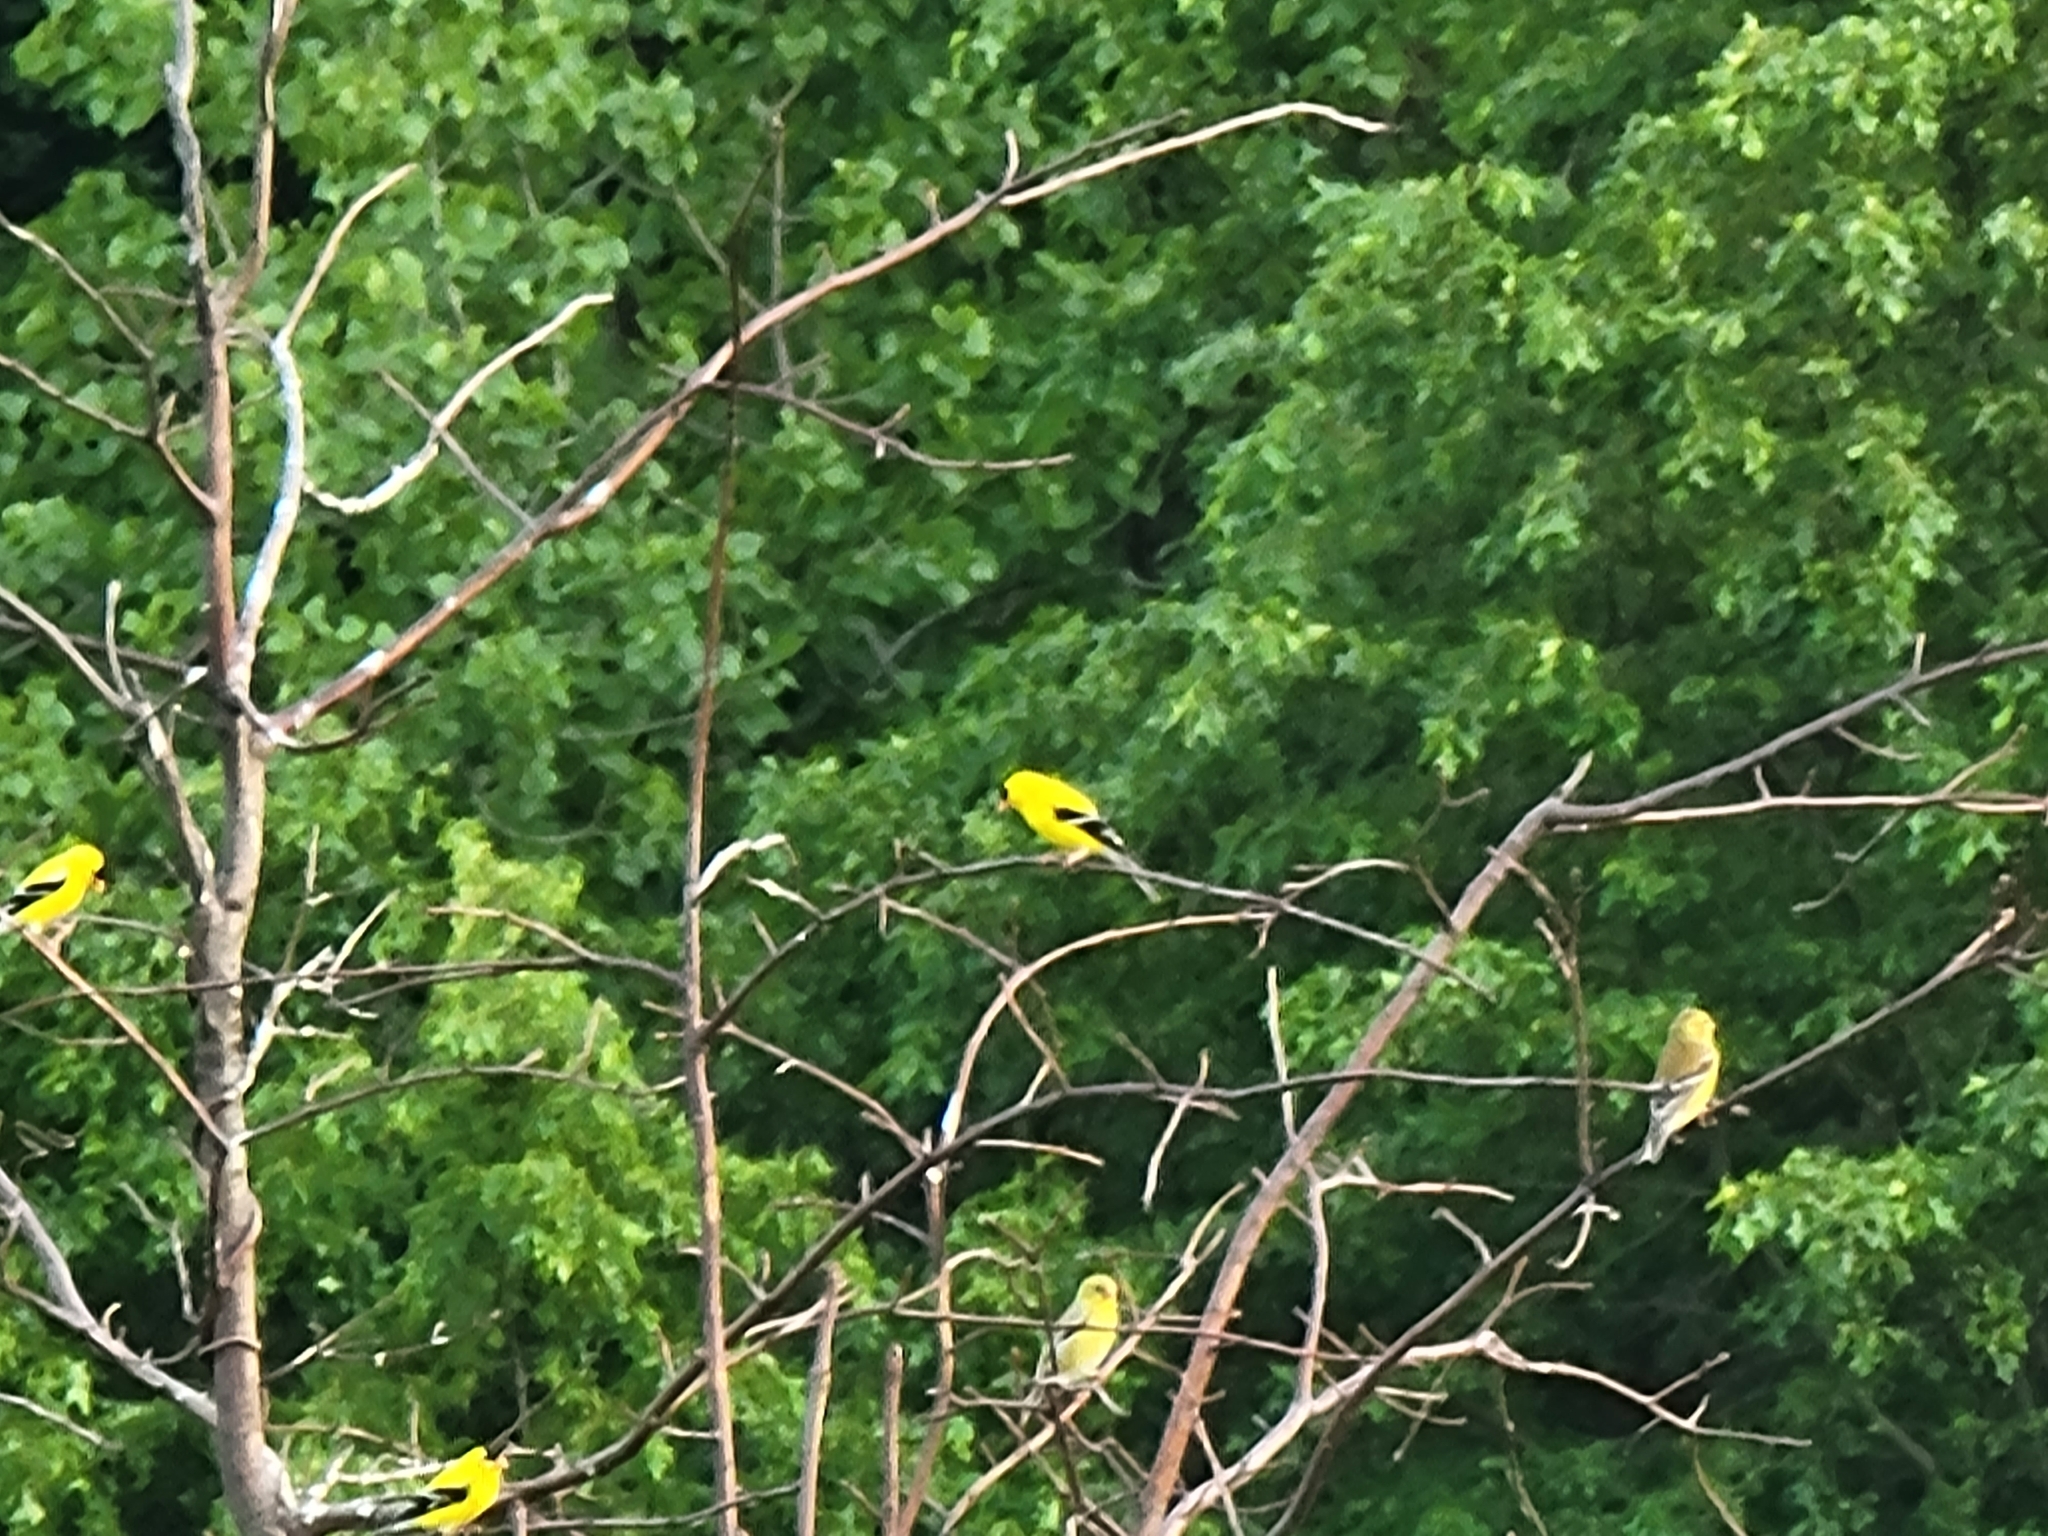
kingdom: Animalia
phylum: Chordata
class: Aves
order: Passeriformes
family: Fringillidae
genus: Spinus
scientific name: Spinus tristis
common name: American goldfinch
